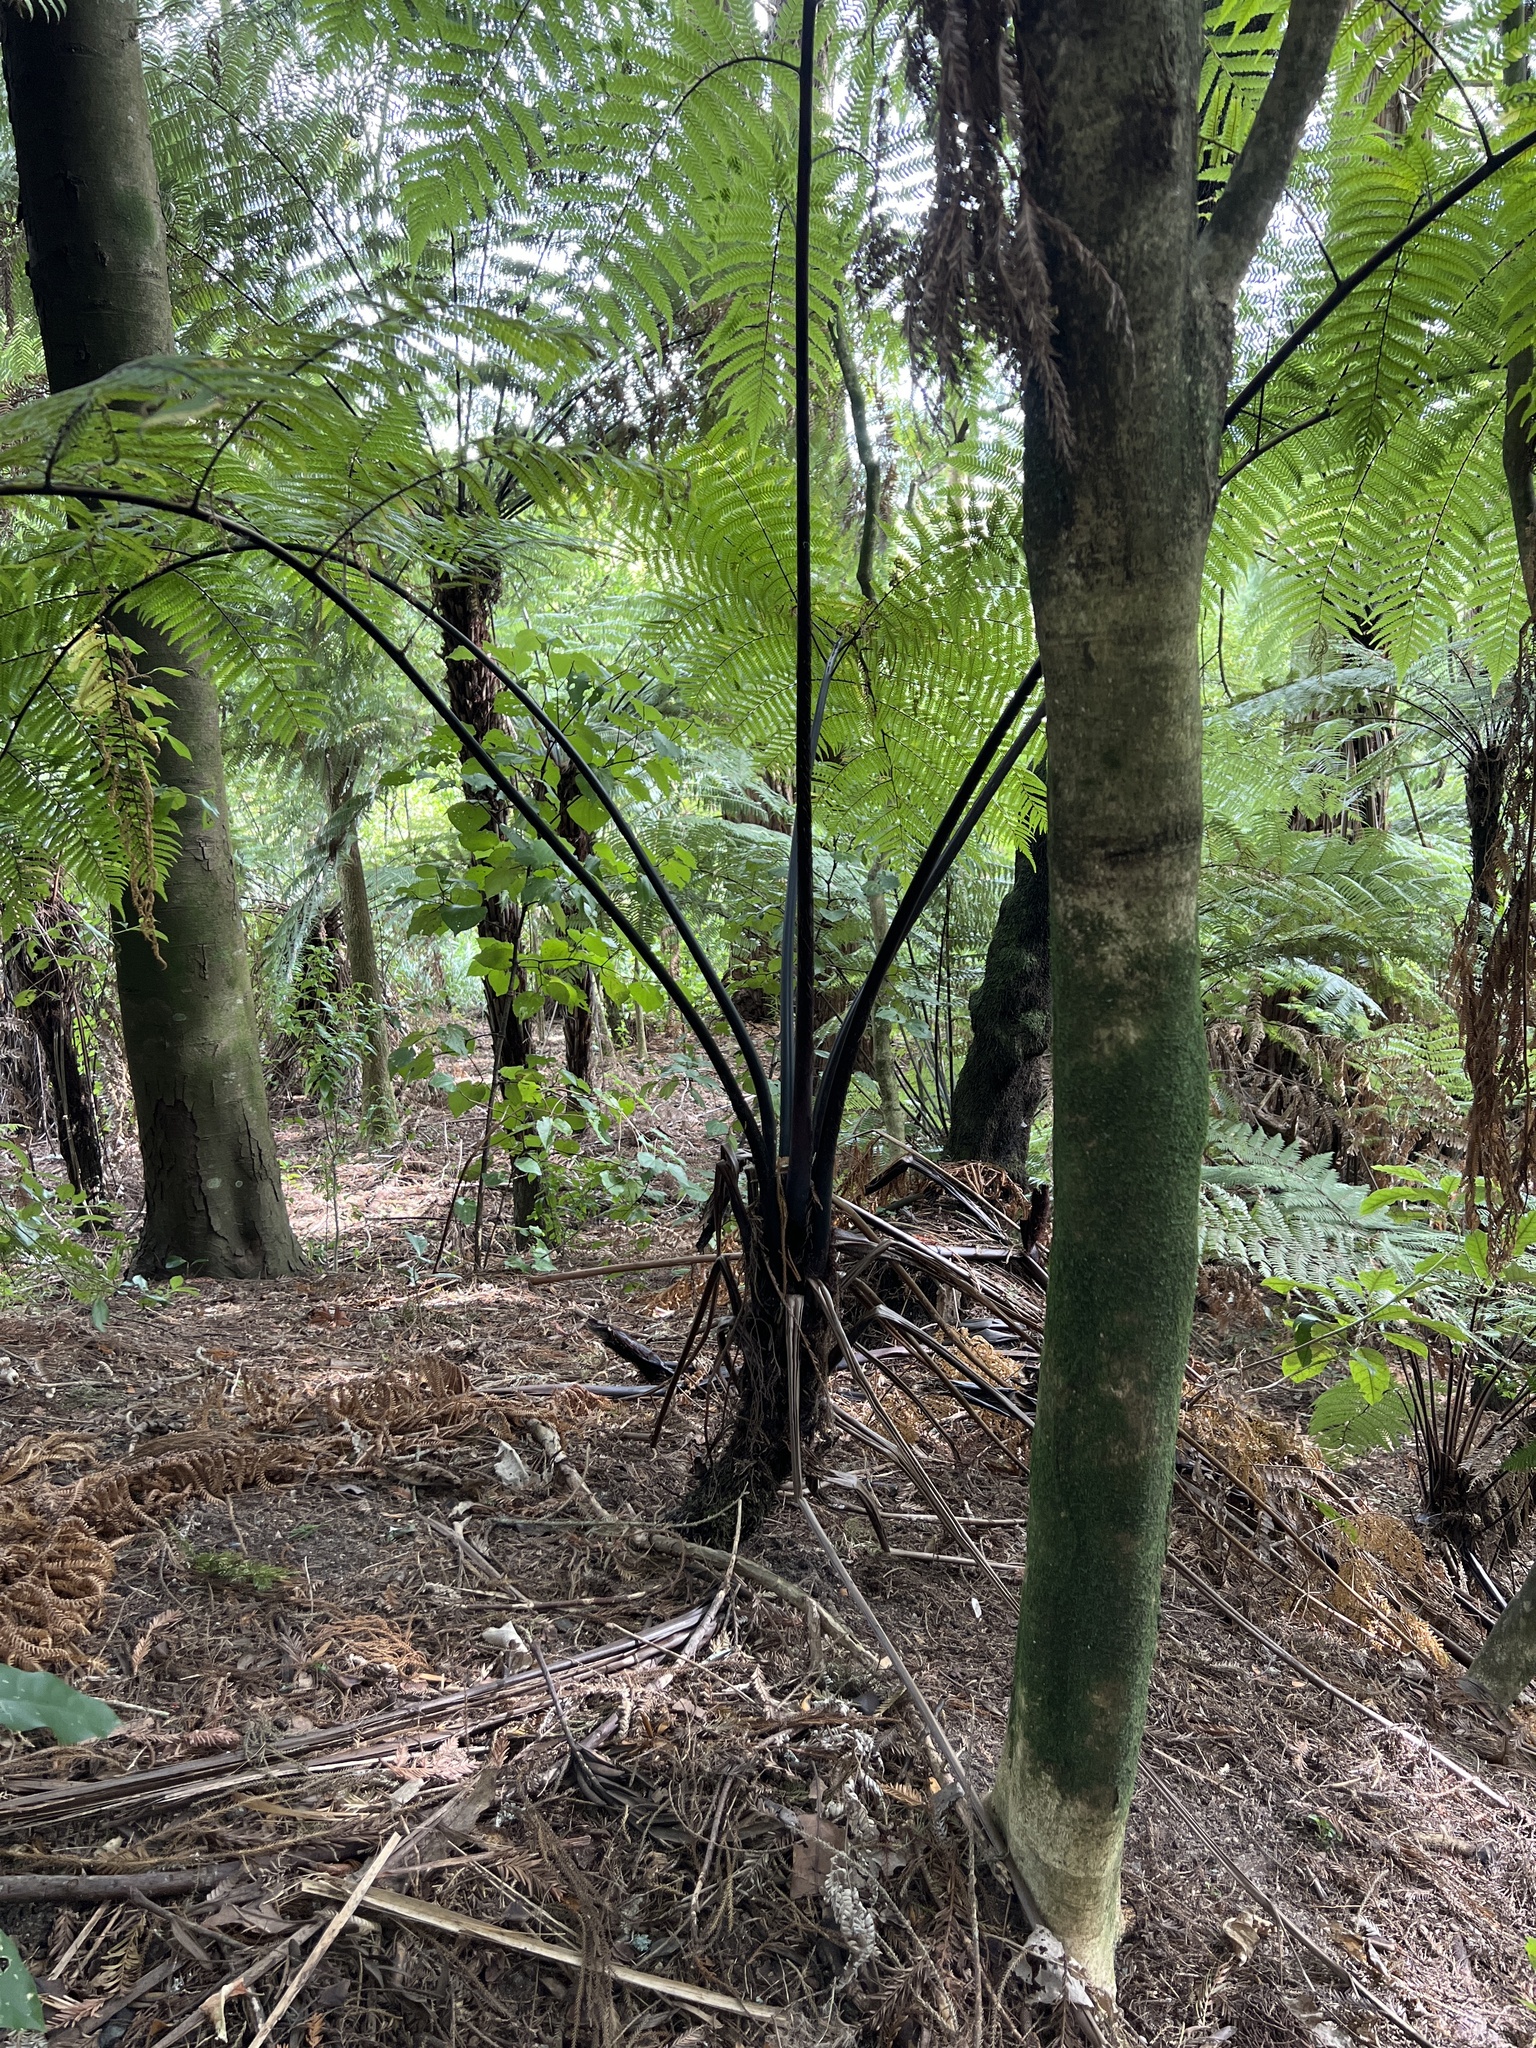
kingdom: Plantae
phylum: Tracheophyta
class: Polypodiopsida
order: Cyatheales
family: Cyatheaceae
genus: Sphaeropteris
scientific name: Sphaeropteris medullaris
